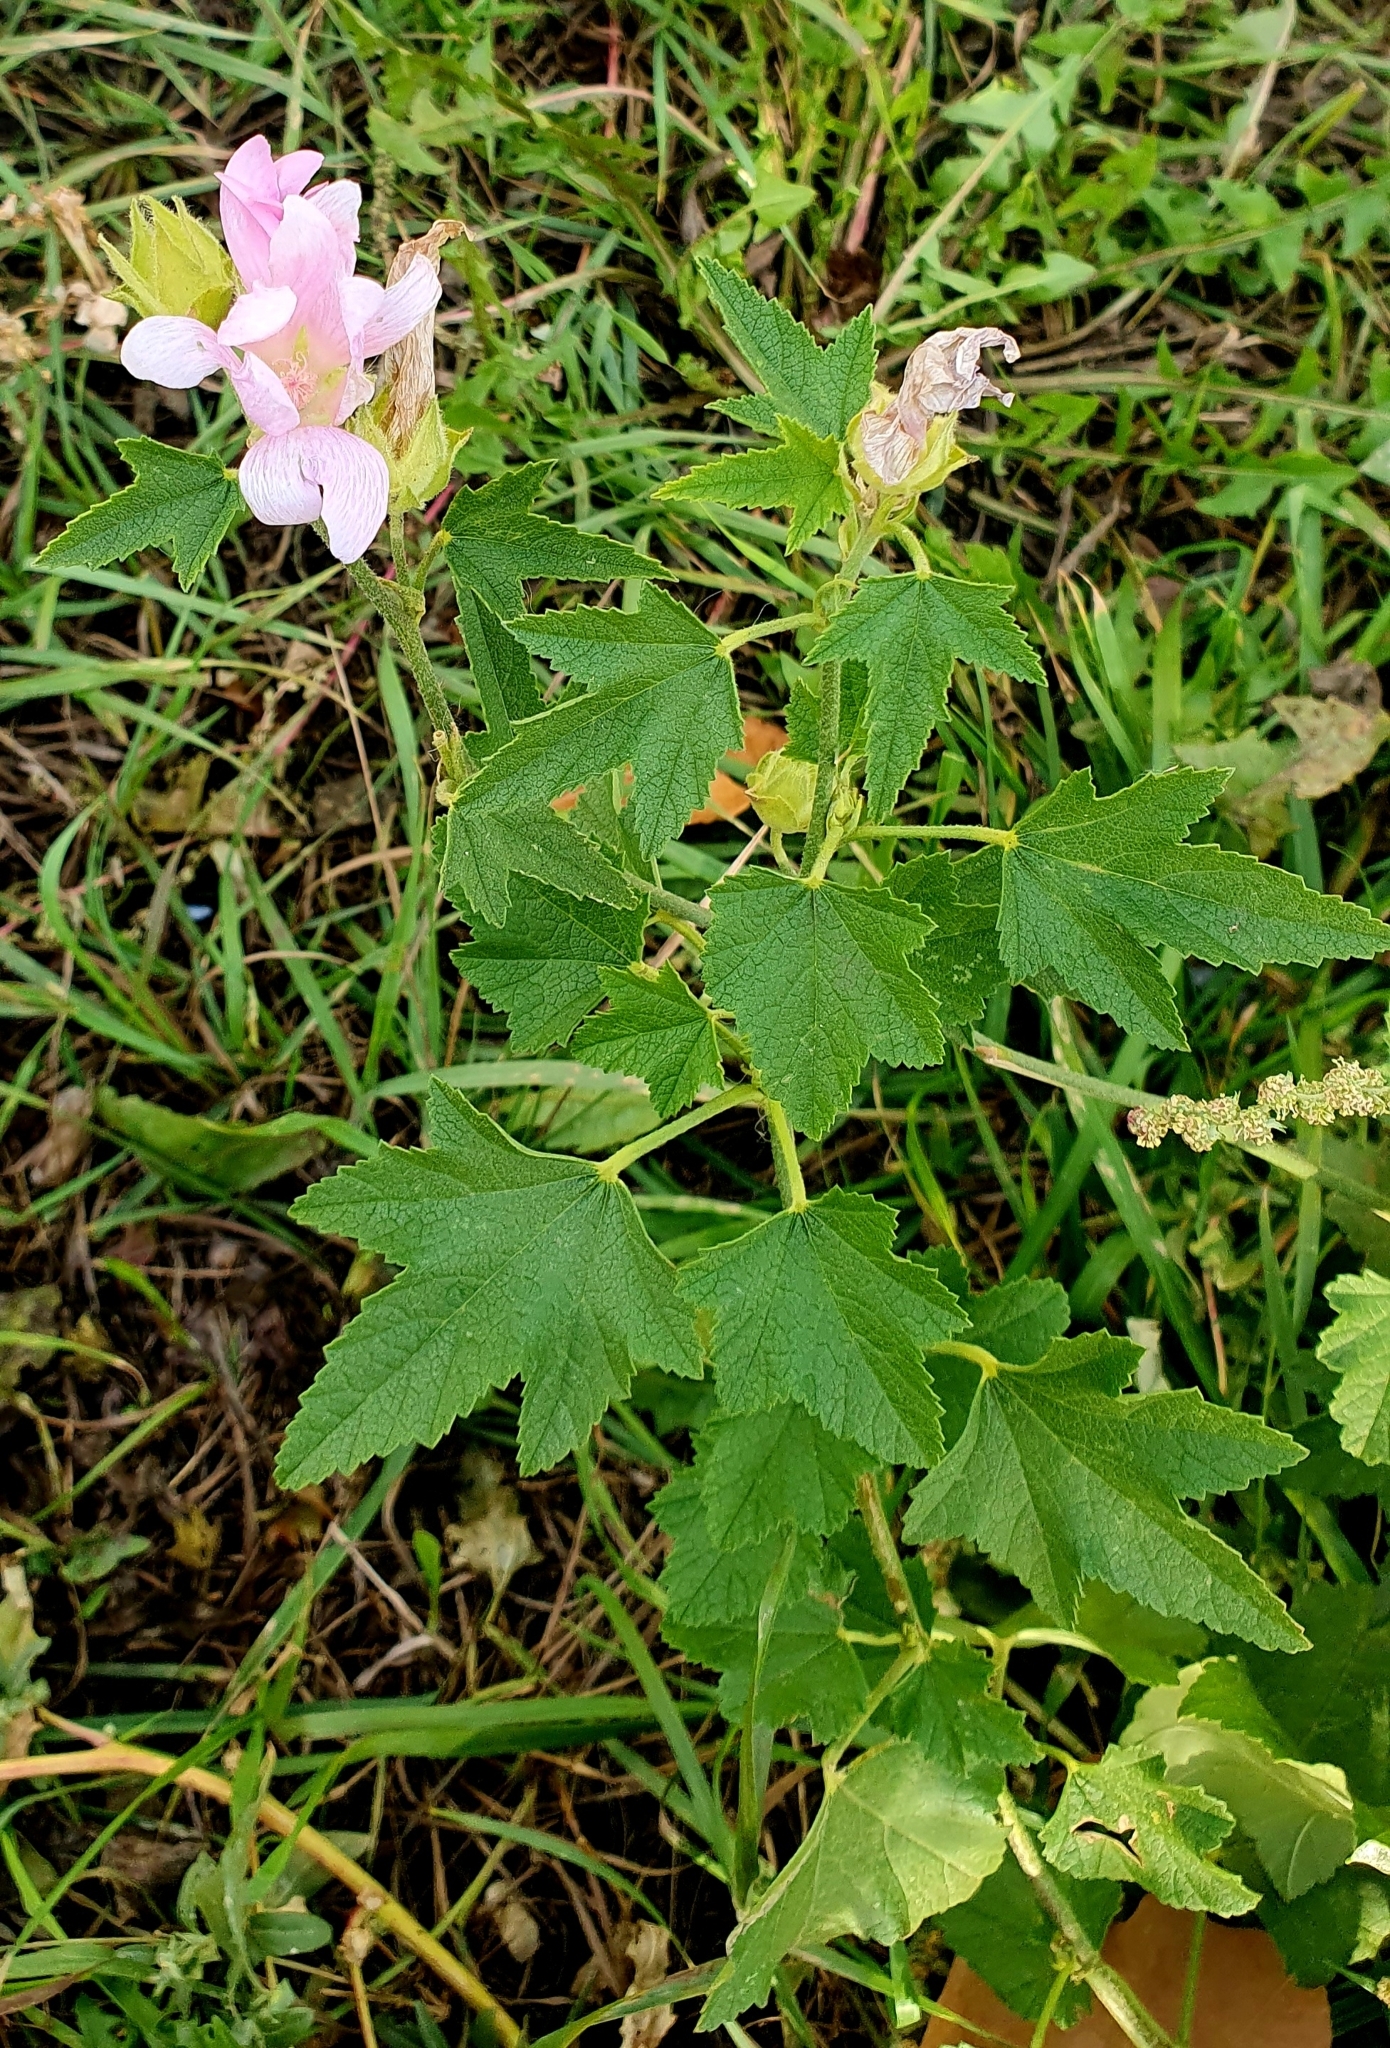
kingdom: Plantae
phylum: Tracheophyta
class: Magnoliopsida
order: Malvales
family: Malvaceae
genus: Malva
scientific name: Malva thuringiaca
